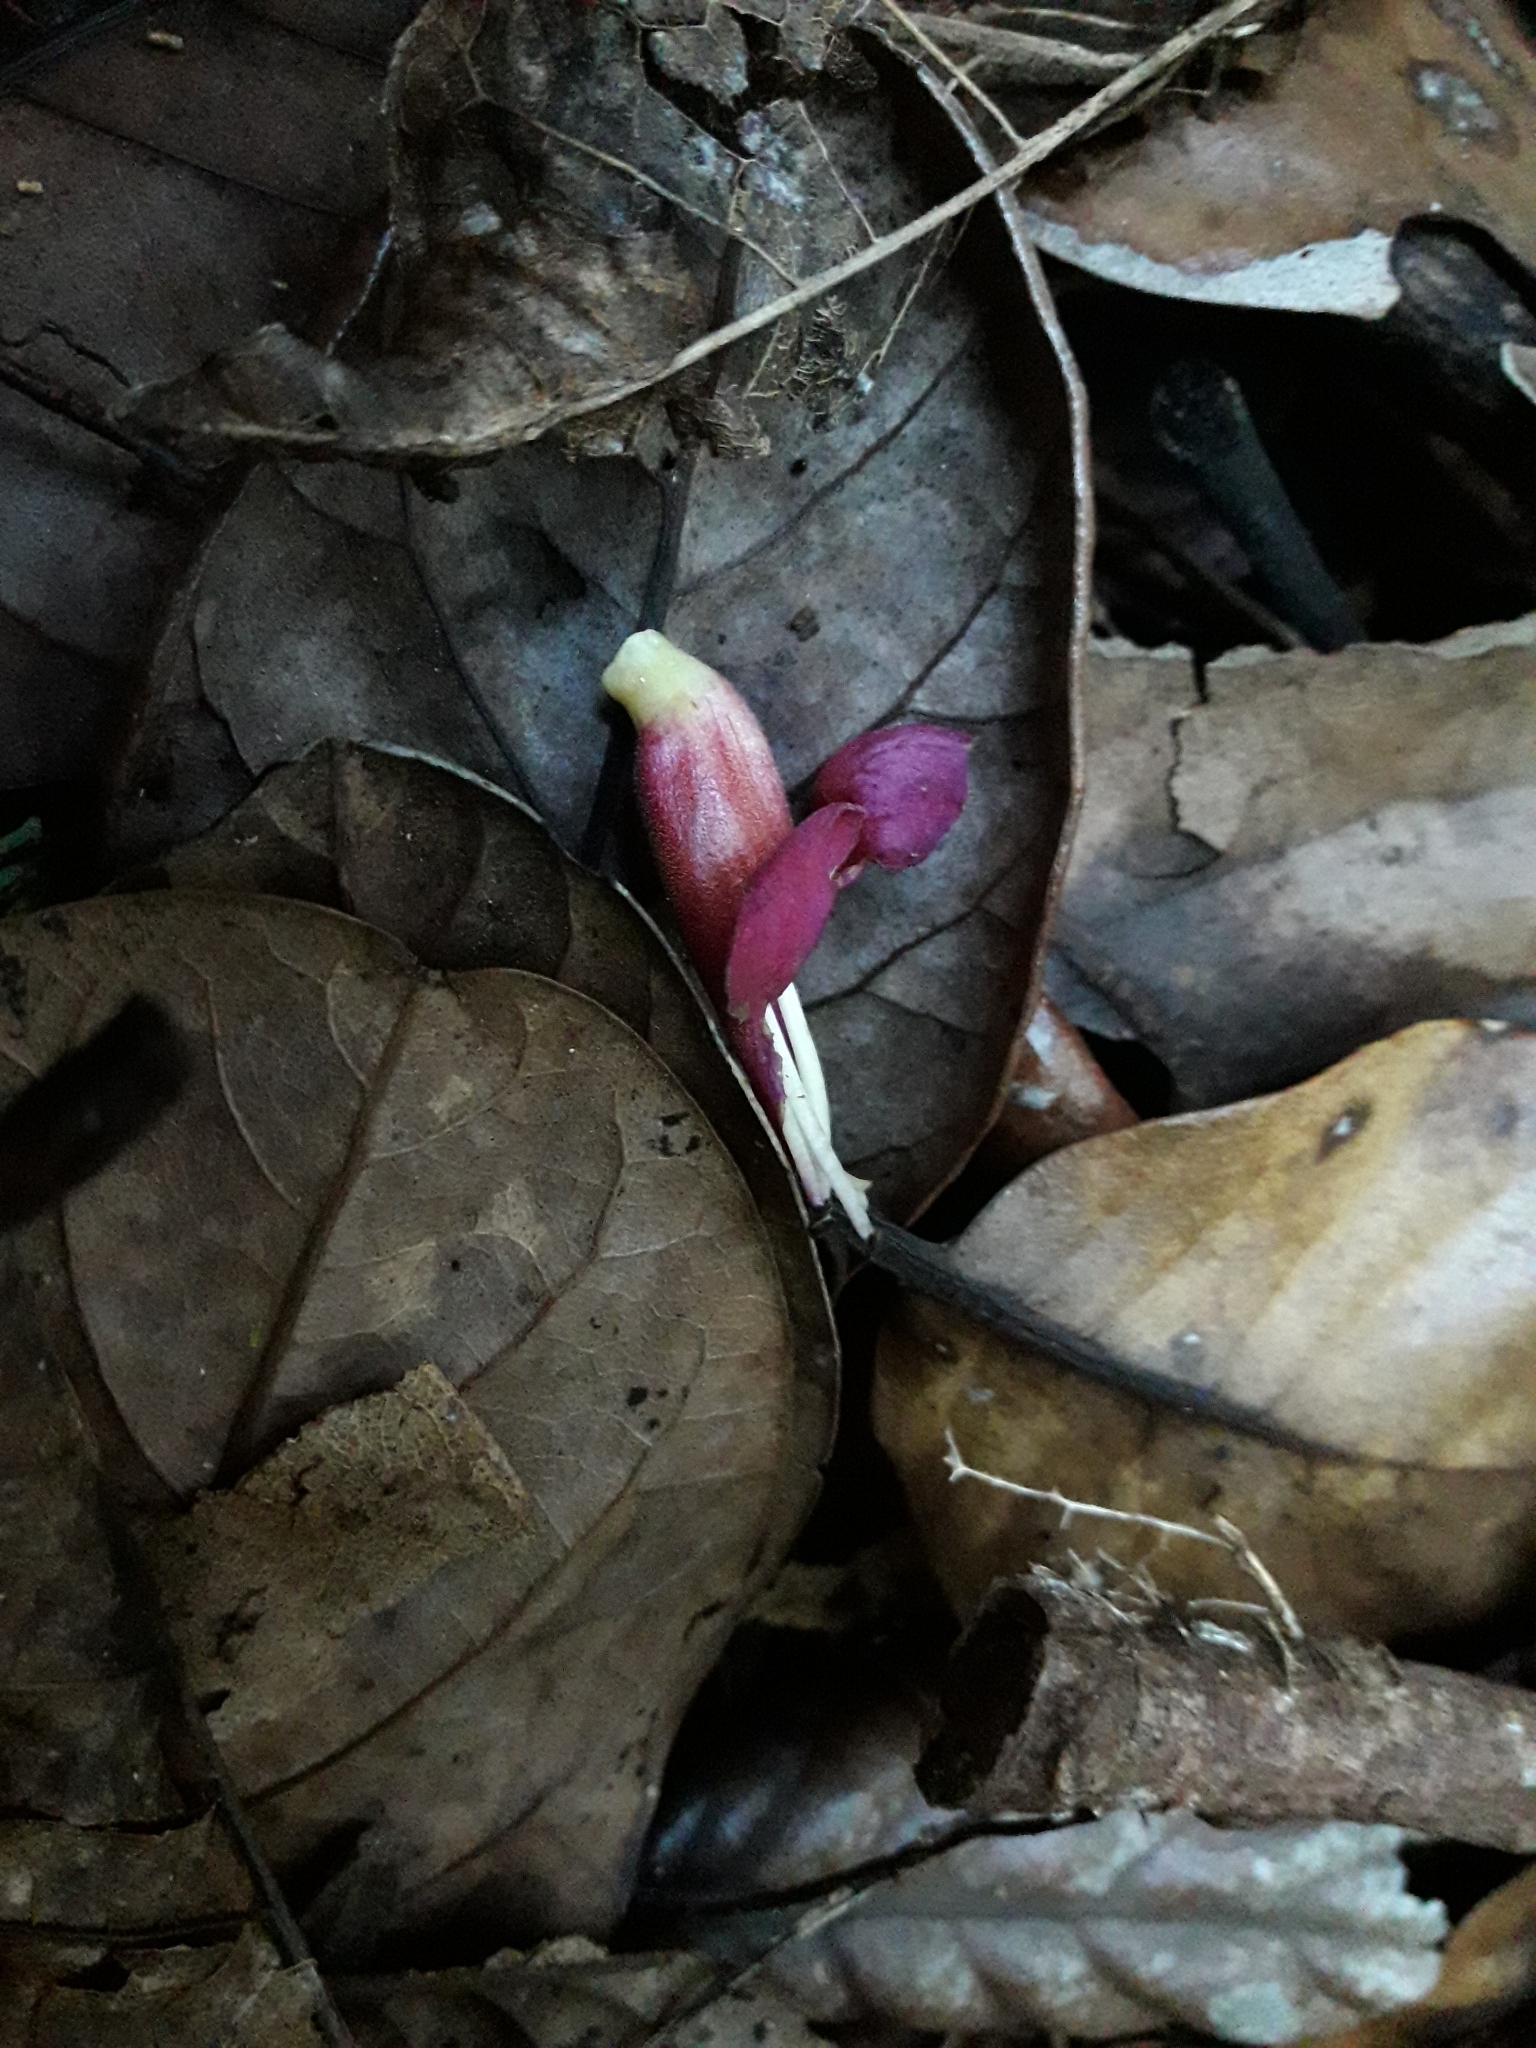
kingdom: Plantae
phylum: Tracheophyta
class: Magnoliopsida
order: Lamiales
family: Lamiaceae
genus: Vitex
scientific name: Vitex lucens
